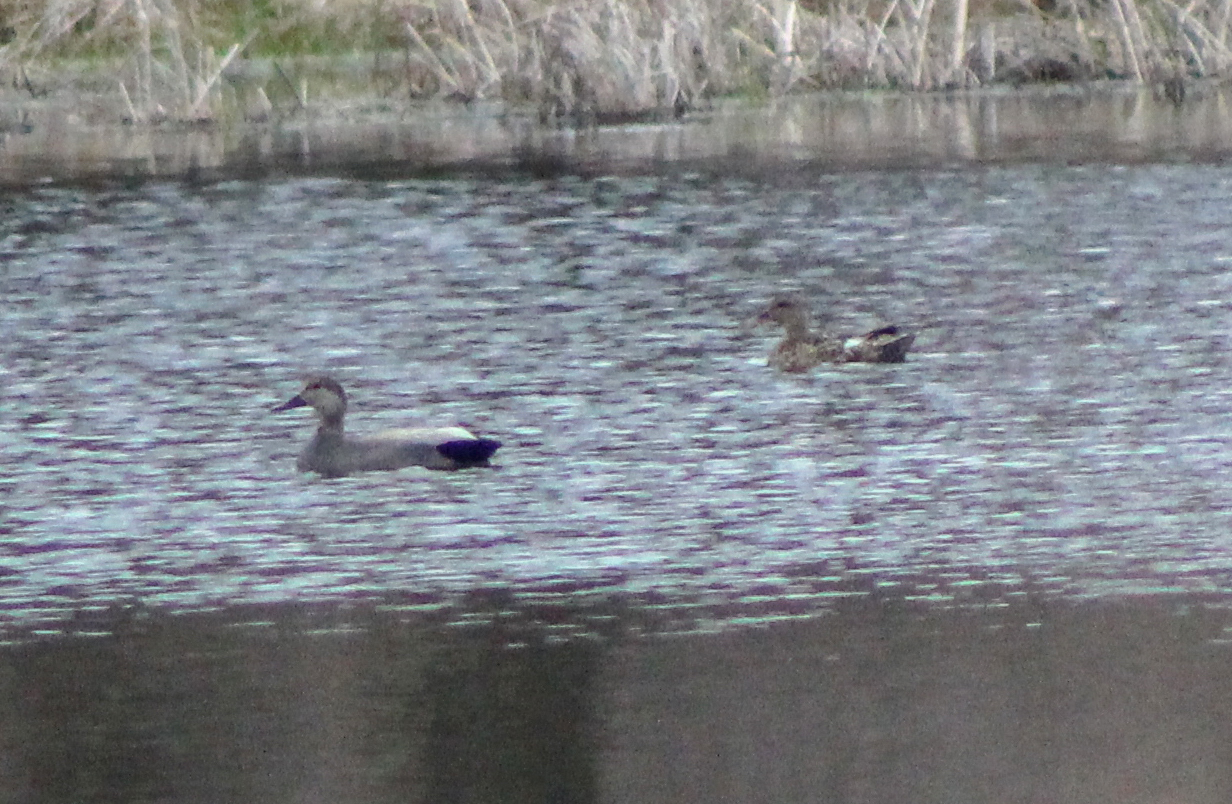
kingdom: Animalia
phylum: Chordata
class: Aves
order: Anseriformes
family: Anatidae
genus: Mareca
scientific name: Mareca strepera
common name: Gadwall
